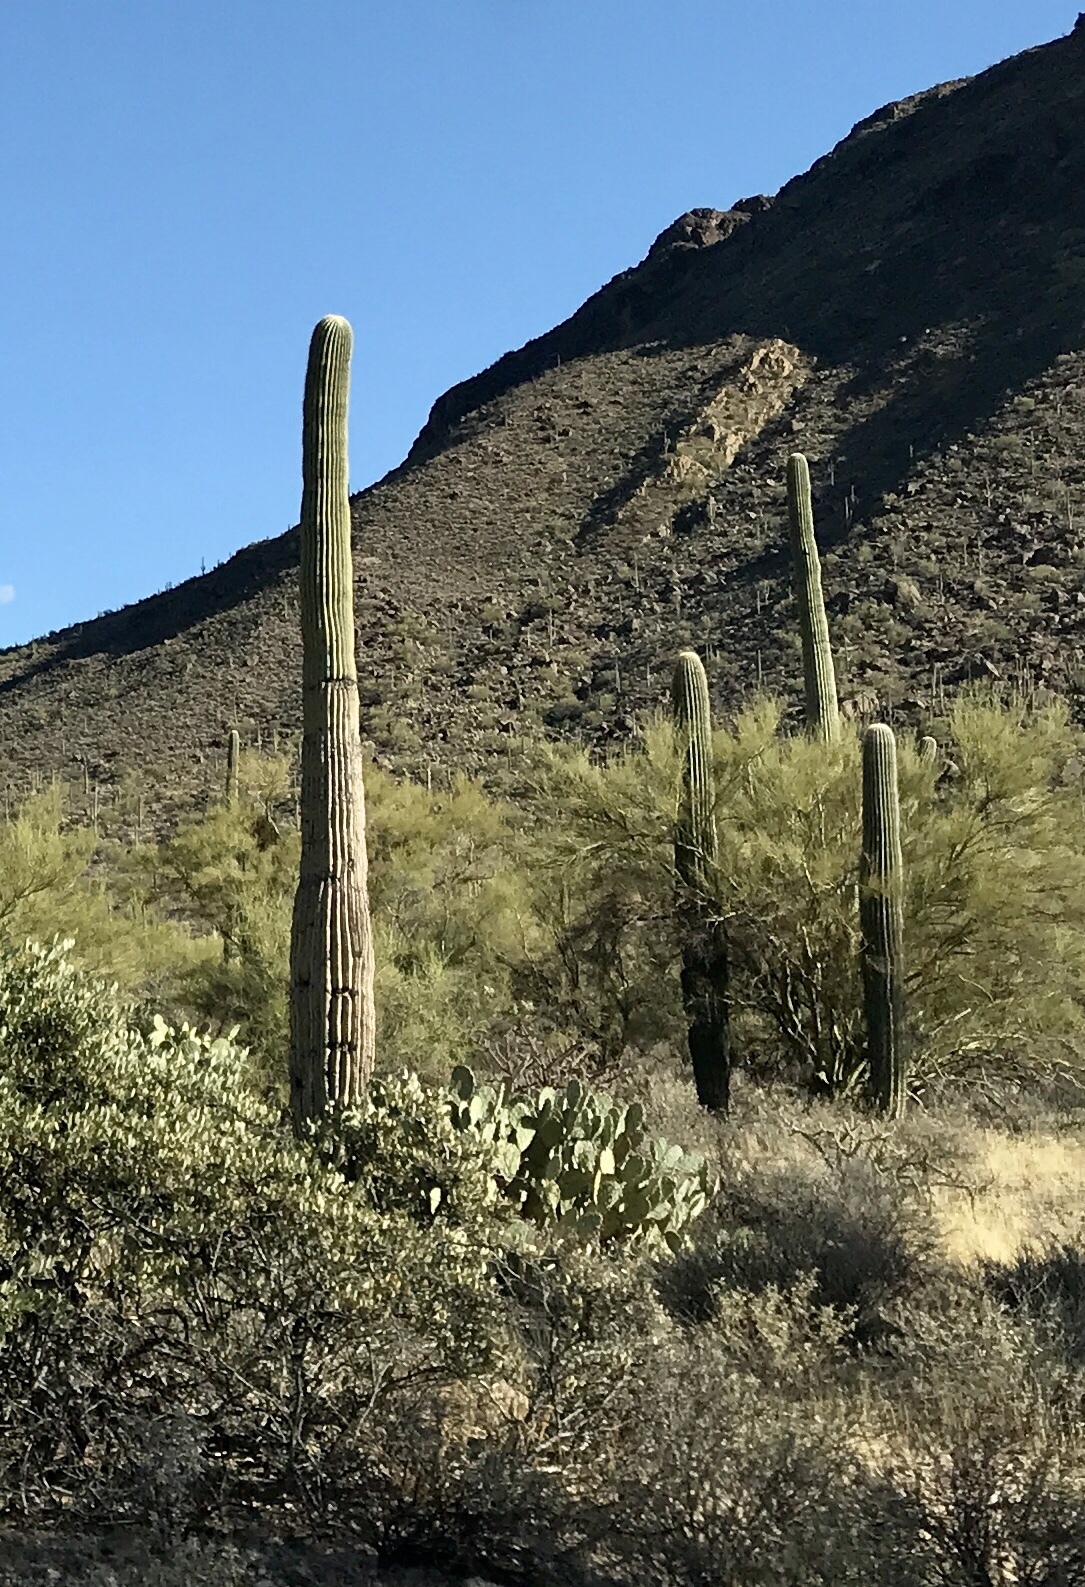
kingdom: Plantae
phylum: Tracheophyta
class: Magnoliopsida
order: Caryophyllales
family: Cactaceae
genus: Carnegiea
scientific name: Carnegiea gigantea
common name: Saguaro
